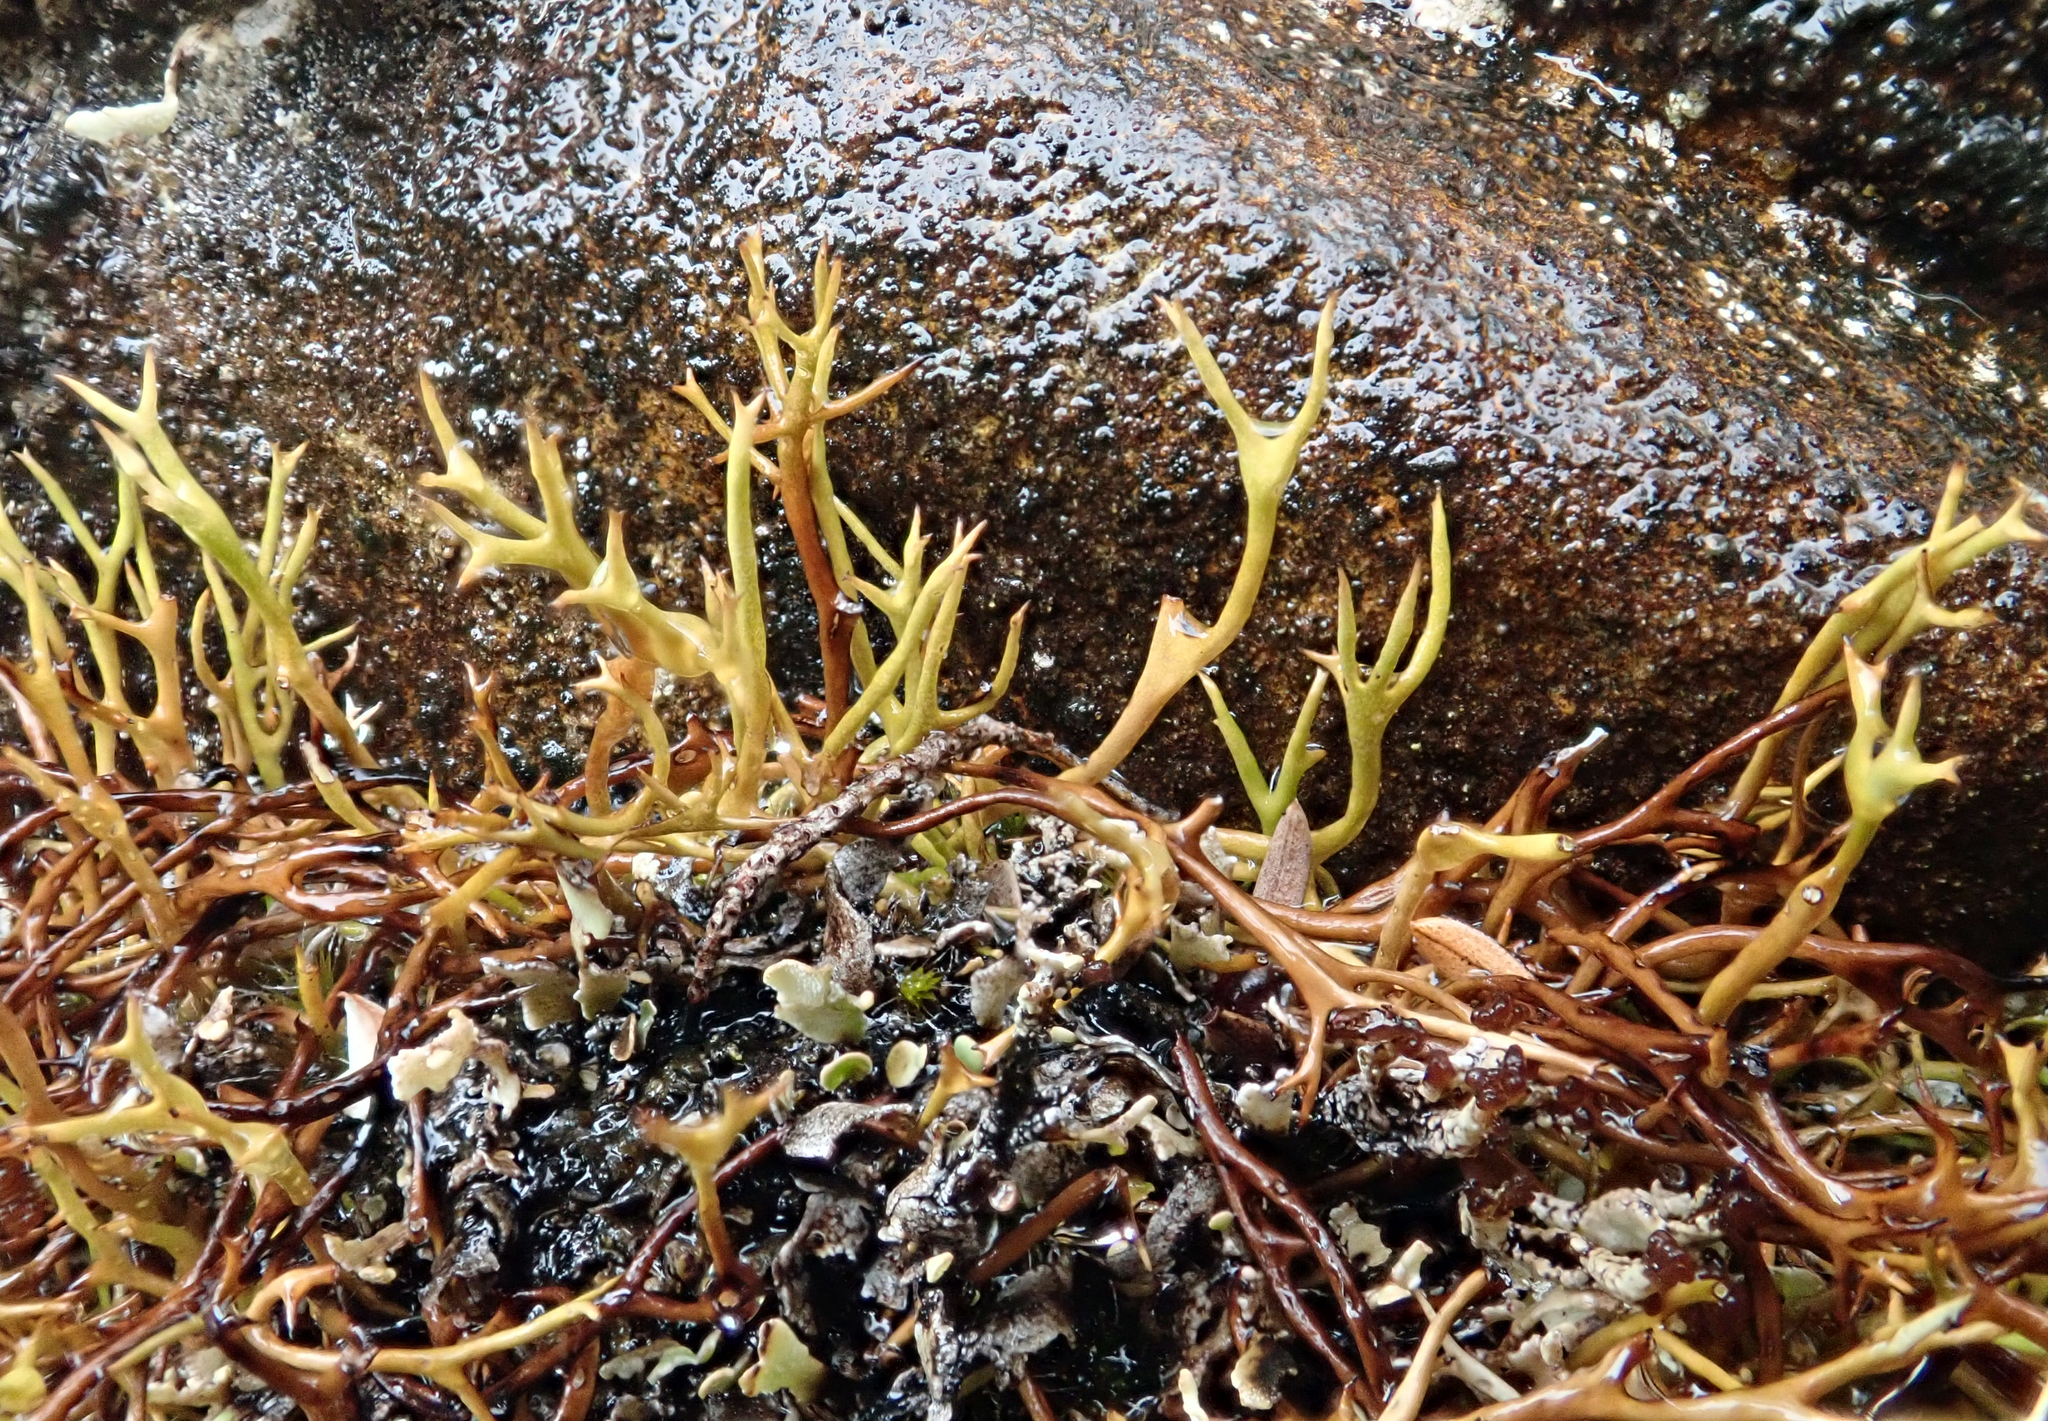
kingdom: Fungi
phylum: Ascomycota
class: Lecanoromycetes
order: Lecanorales
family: Cladoniaceae
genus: Cladia
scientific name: Cladia cryptica
